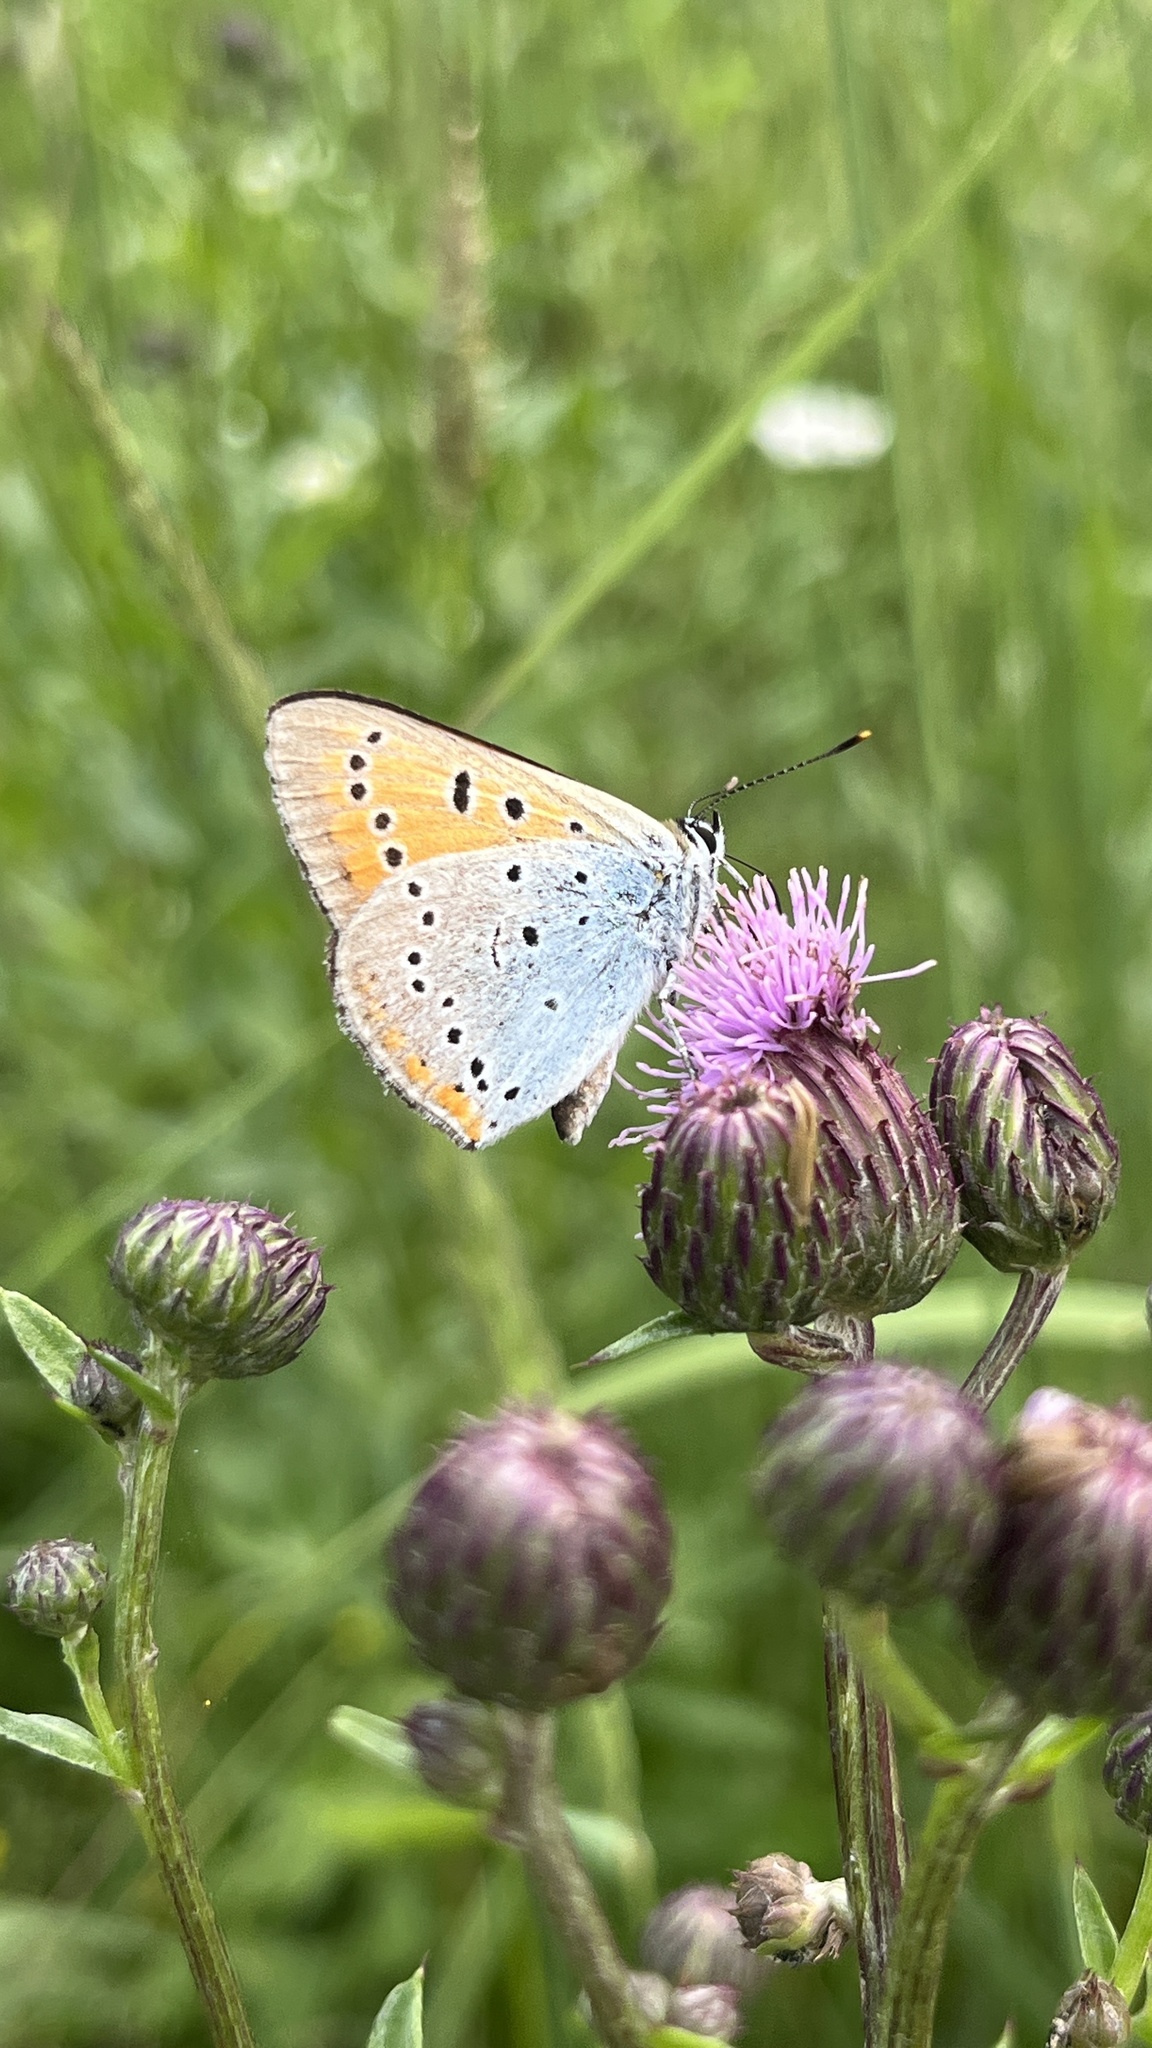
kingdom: Animalia
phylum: Arthropoda
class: Insecta
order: Lepidoptera
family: Lycaenidae
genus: Lycaena
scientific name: Lycaena dispar
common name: Large copper
